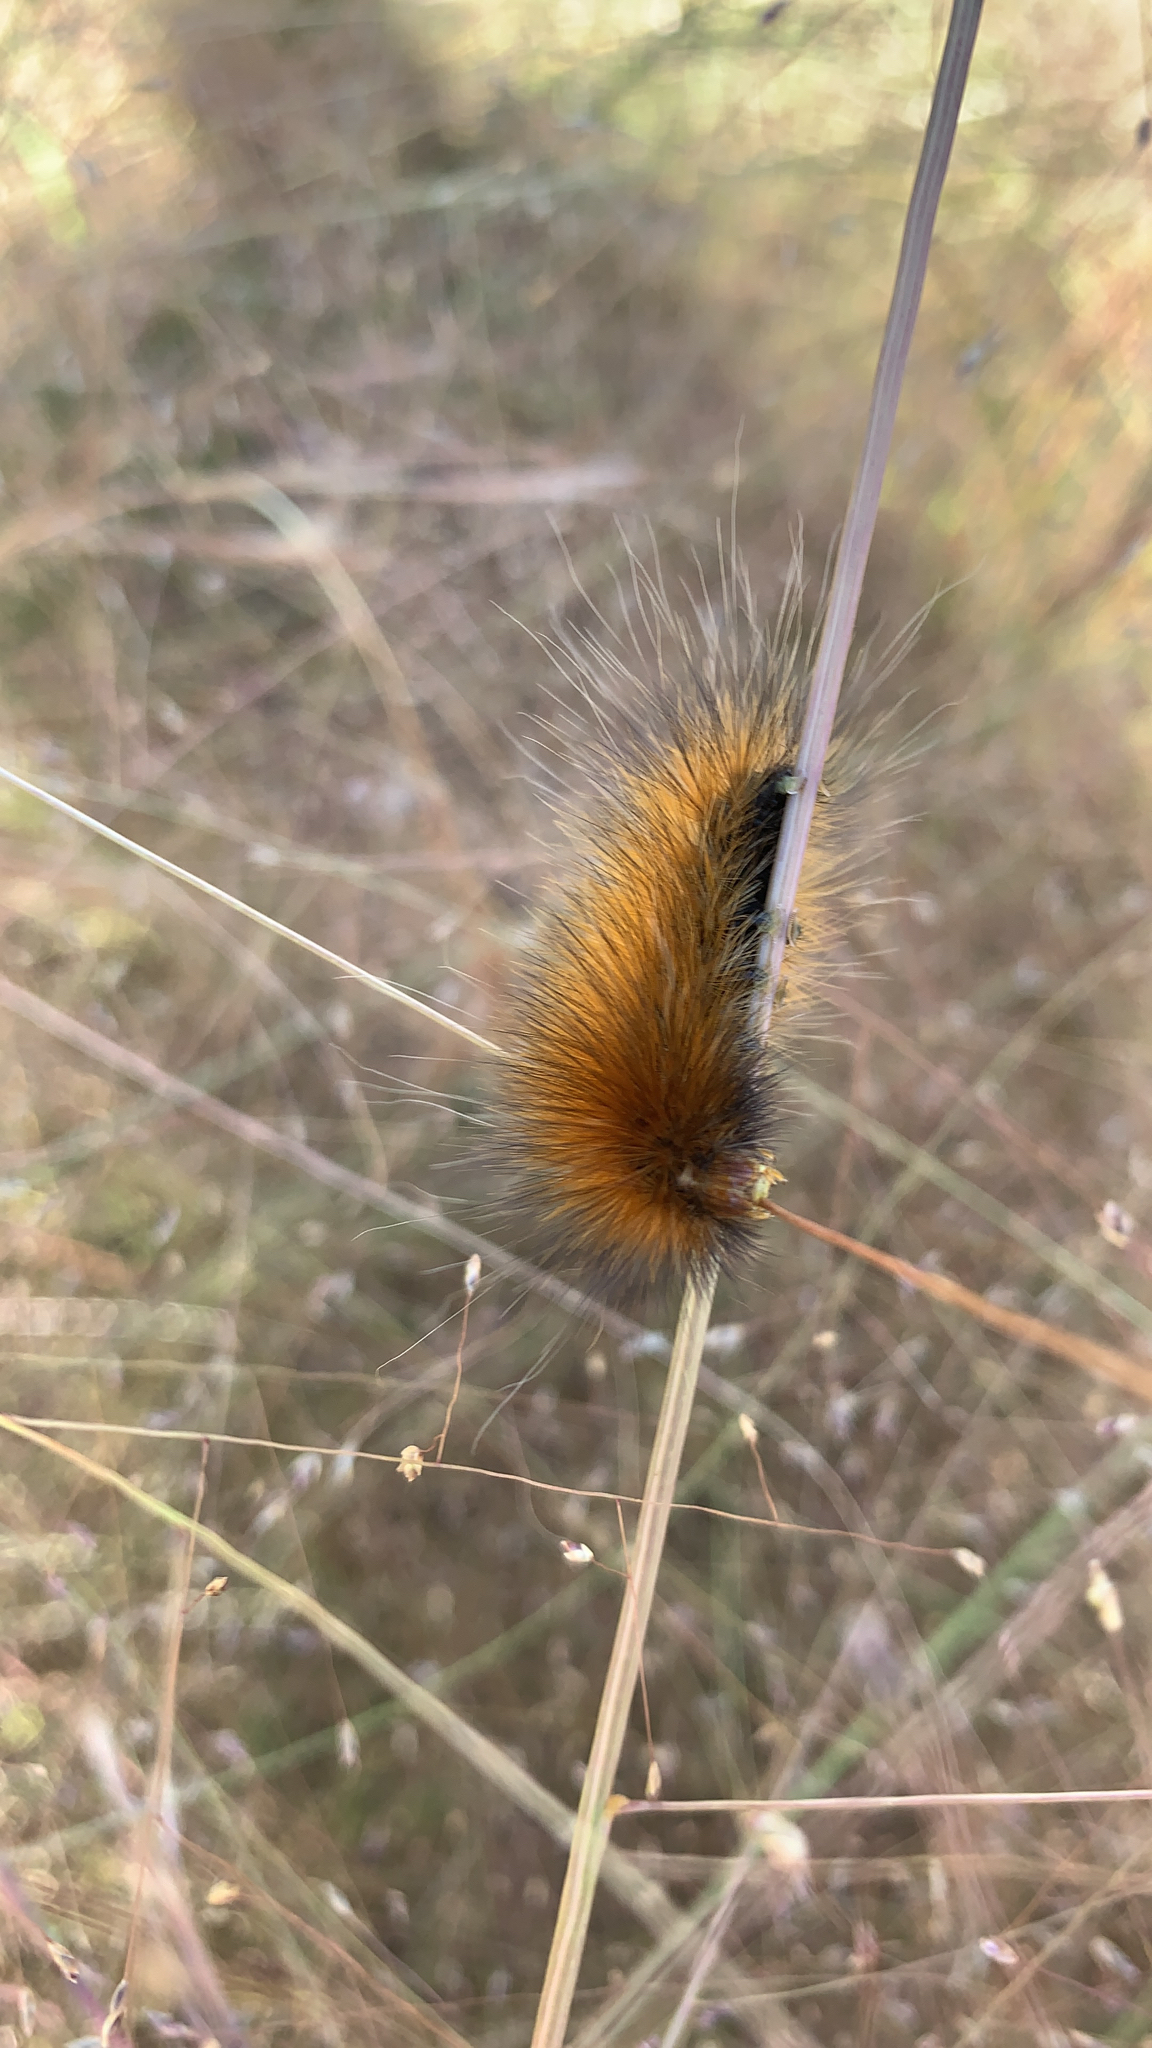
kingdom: Animalia
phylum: Arthropoda
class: Insecta
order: Lepidoptera
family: Erebidae
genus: Spilosoma
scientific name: Spilosoma virginica
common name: Virginia tiger moth
